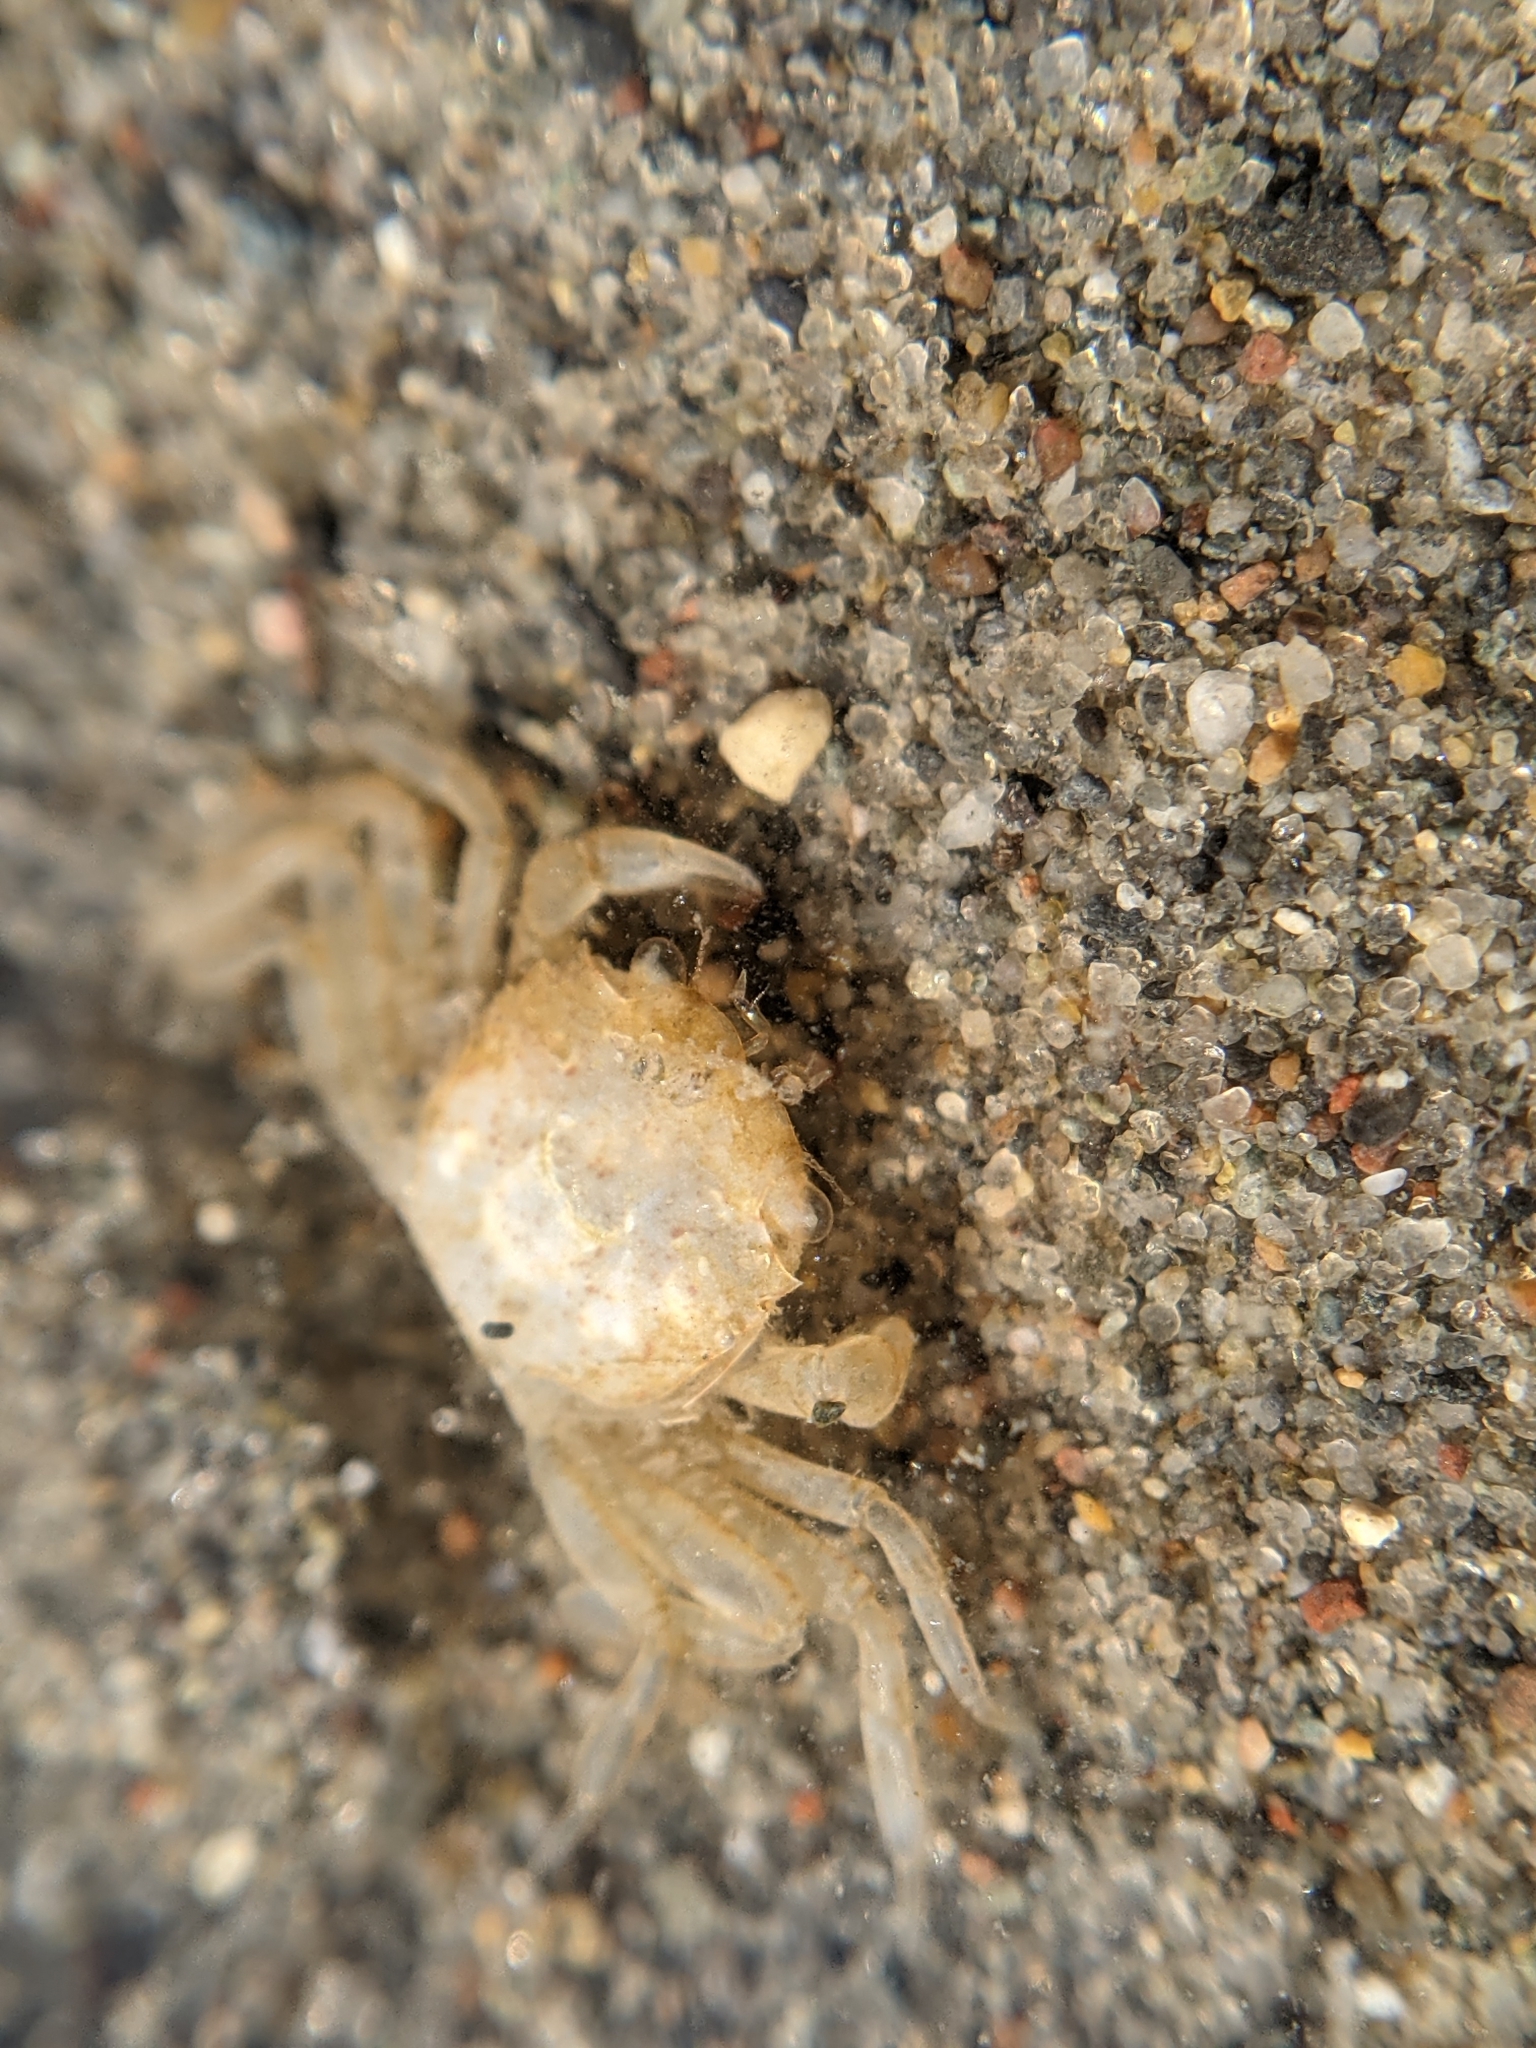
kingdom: Animalia
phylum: Arthropoda
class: Malacostraca
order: Decapoda
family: Varunidae
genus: Hemigrapsus
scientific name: Hemigrapsus oregonensis
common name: Yellow shore crab
